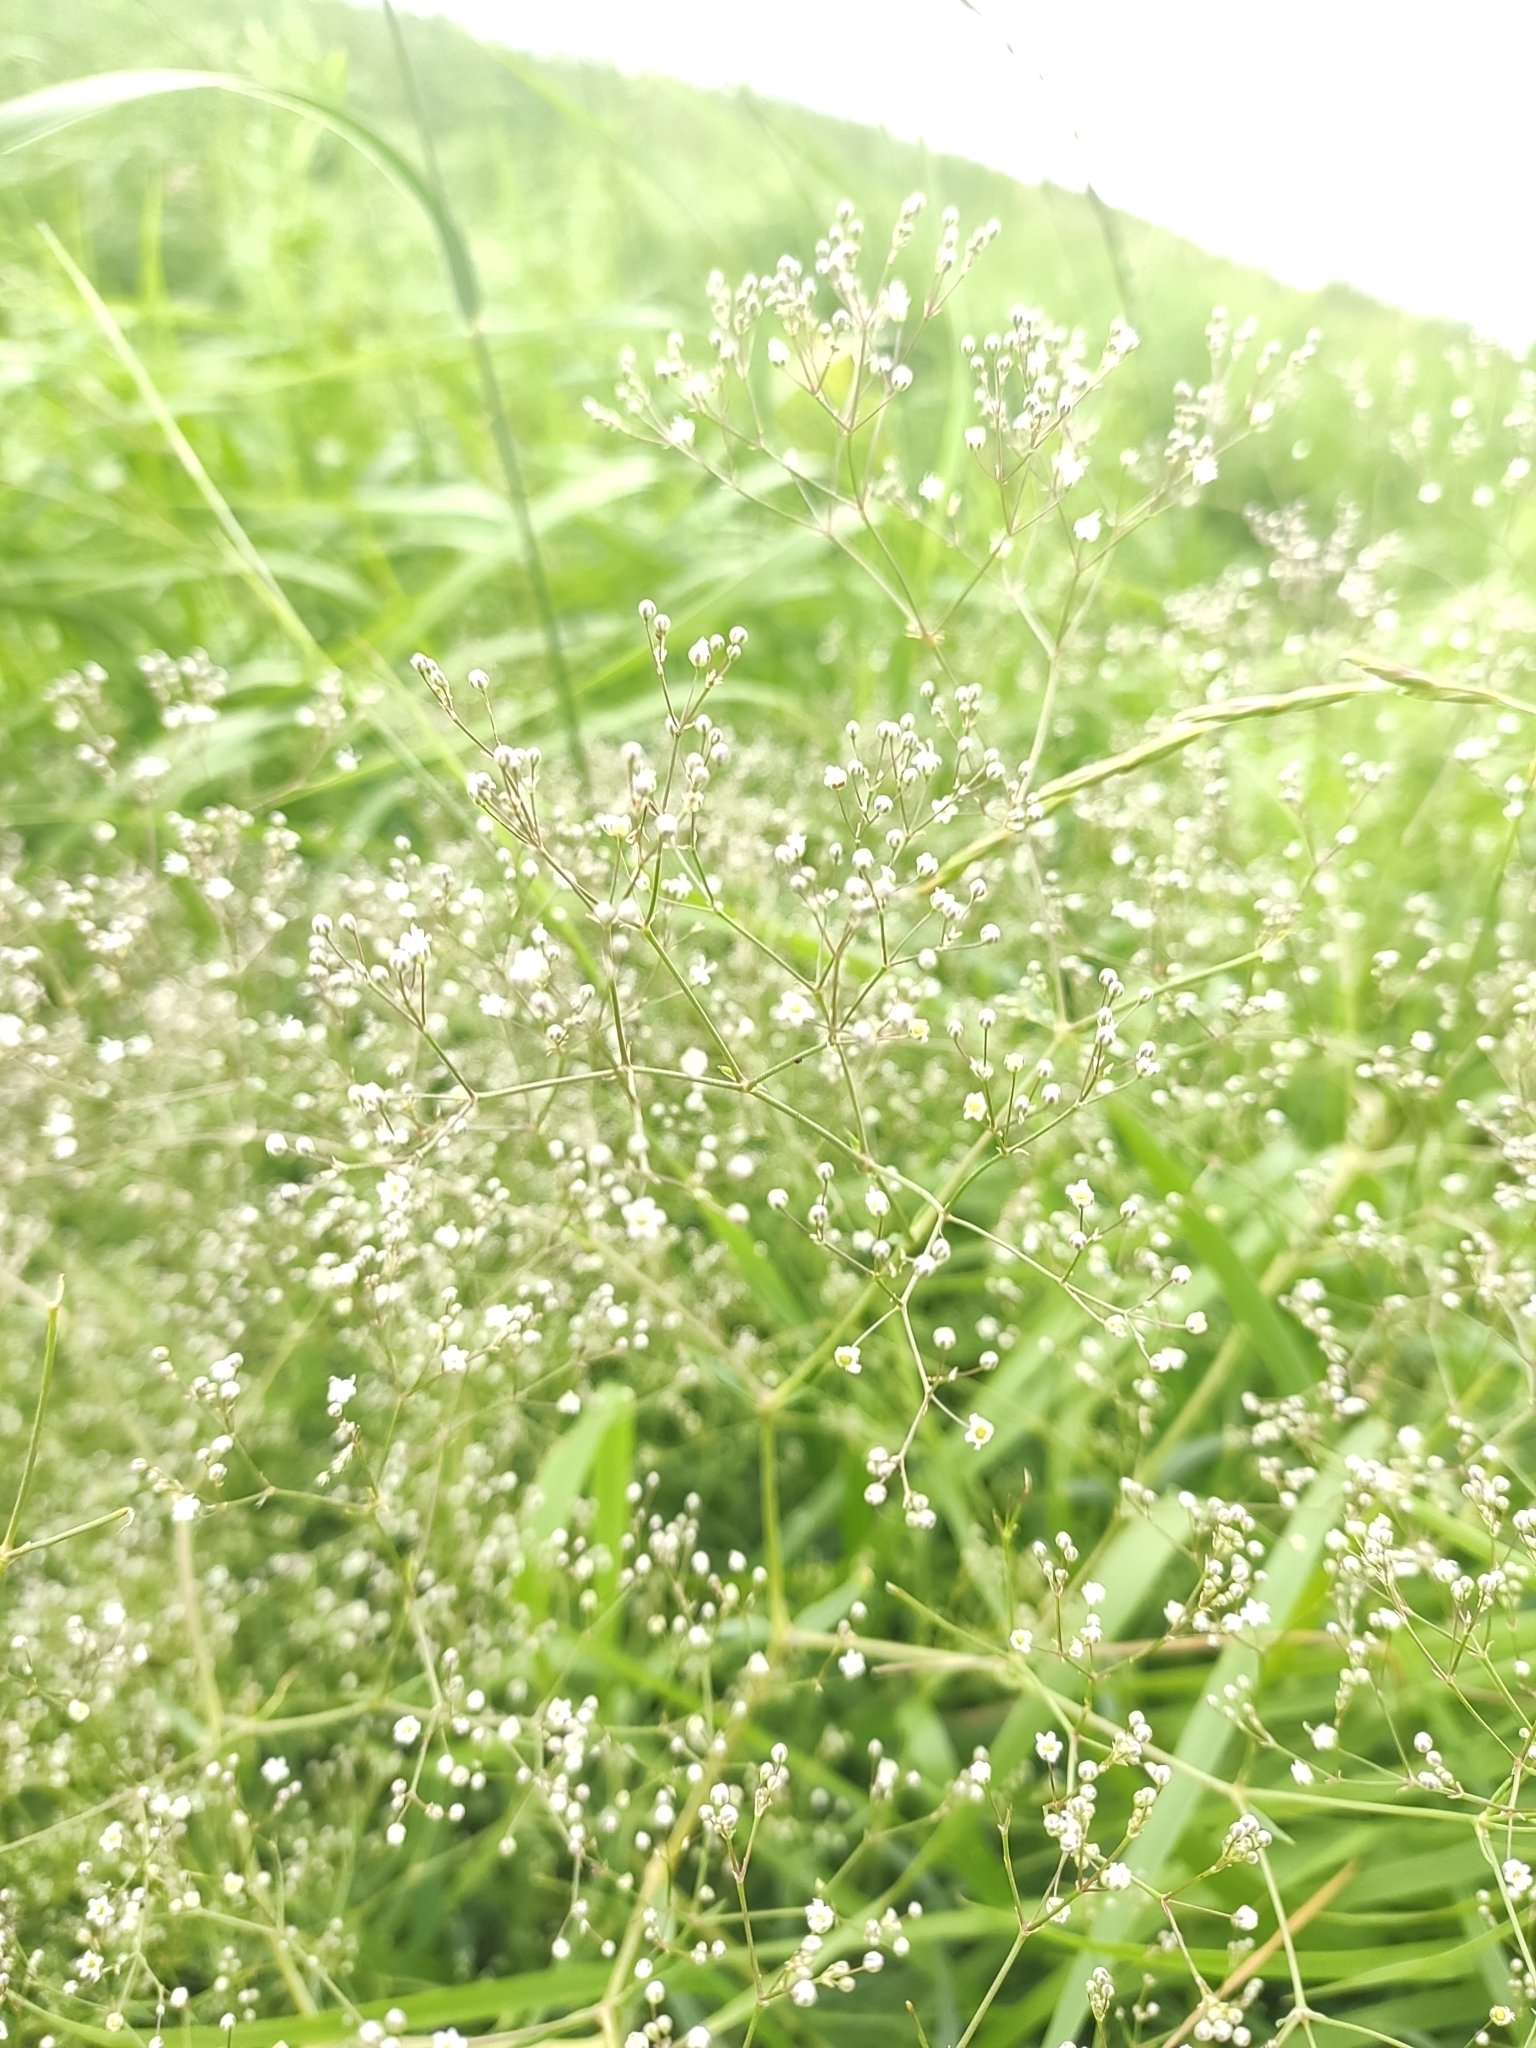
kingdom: Plantae
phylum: Tracheophyta
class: Magnoliopsida
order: Caryophyllales
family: Caryophyllaceae
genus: Gypsophila
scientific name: Gypsophila paniculata
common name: Baby's-breath
